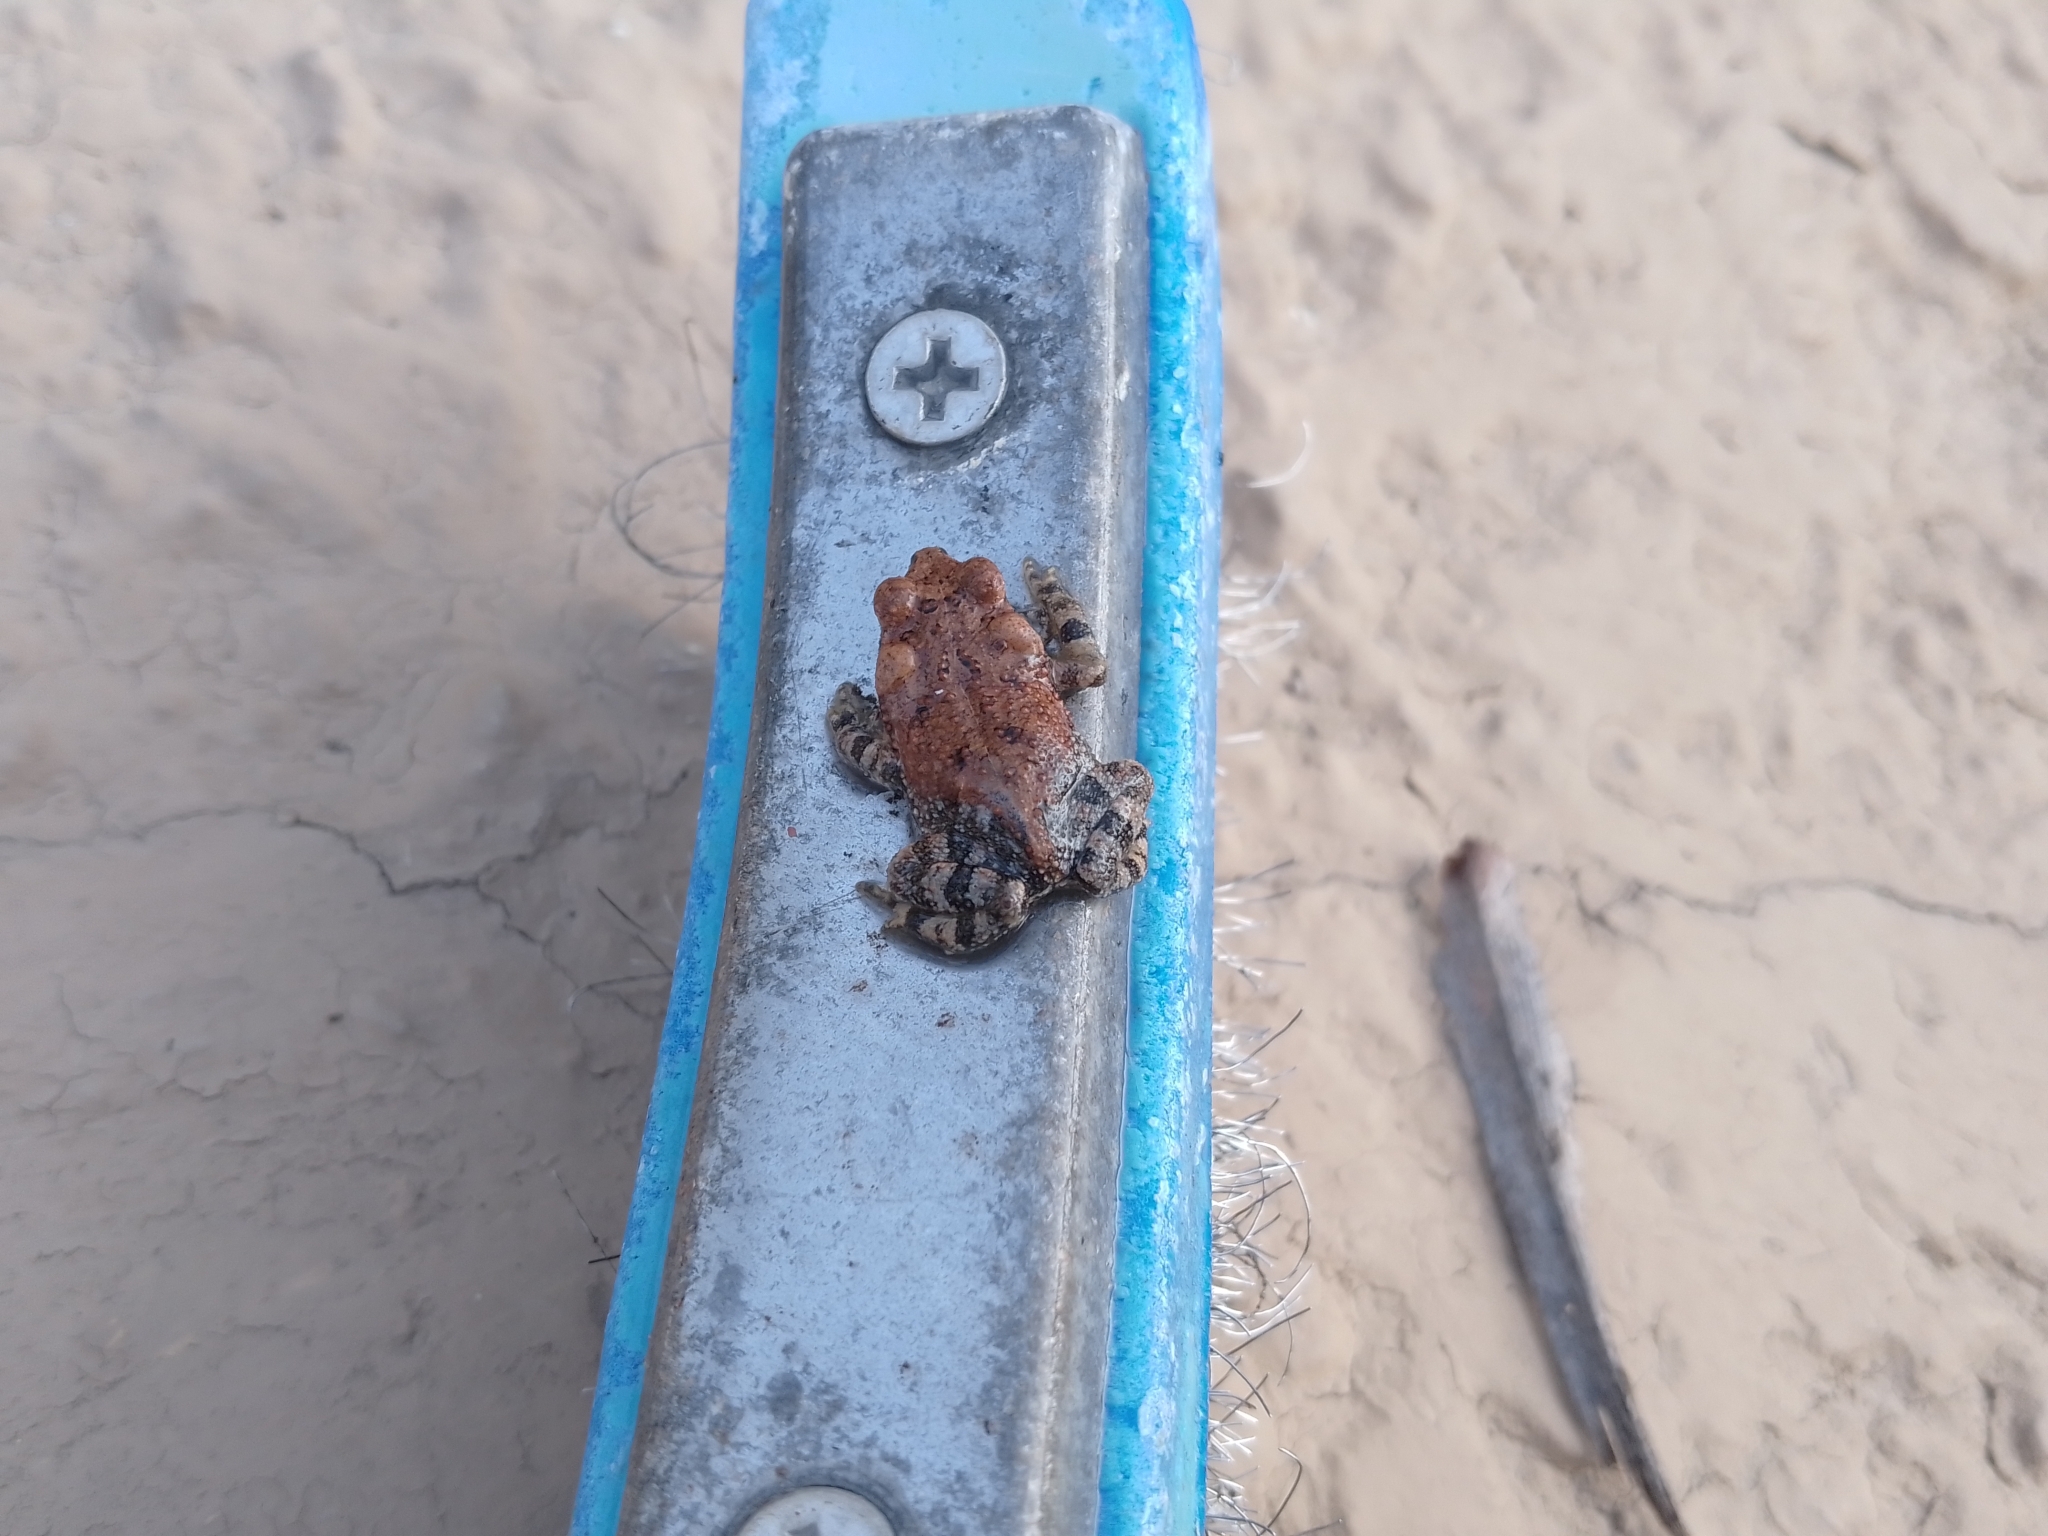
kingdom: Animalia
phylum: Chordata
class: Amphibia
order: Anura
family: Bufonidae
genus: Incilius
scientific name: Incilius nebulifer
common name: Gulf coast toad
